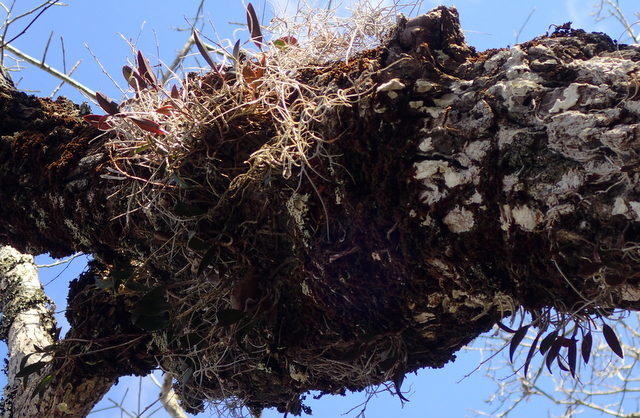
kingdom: Plantae
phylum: Tracheophyta
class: Liliopsida
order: Asparagales
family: Orchidaceae
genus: Epidendrum
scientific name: Epidendrum conopseum
